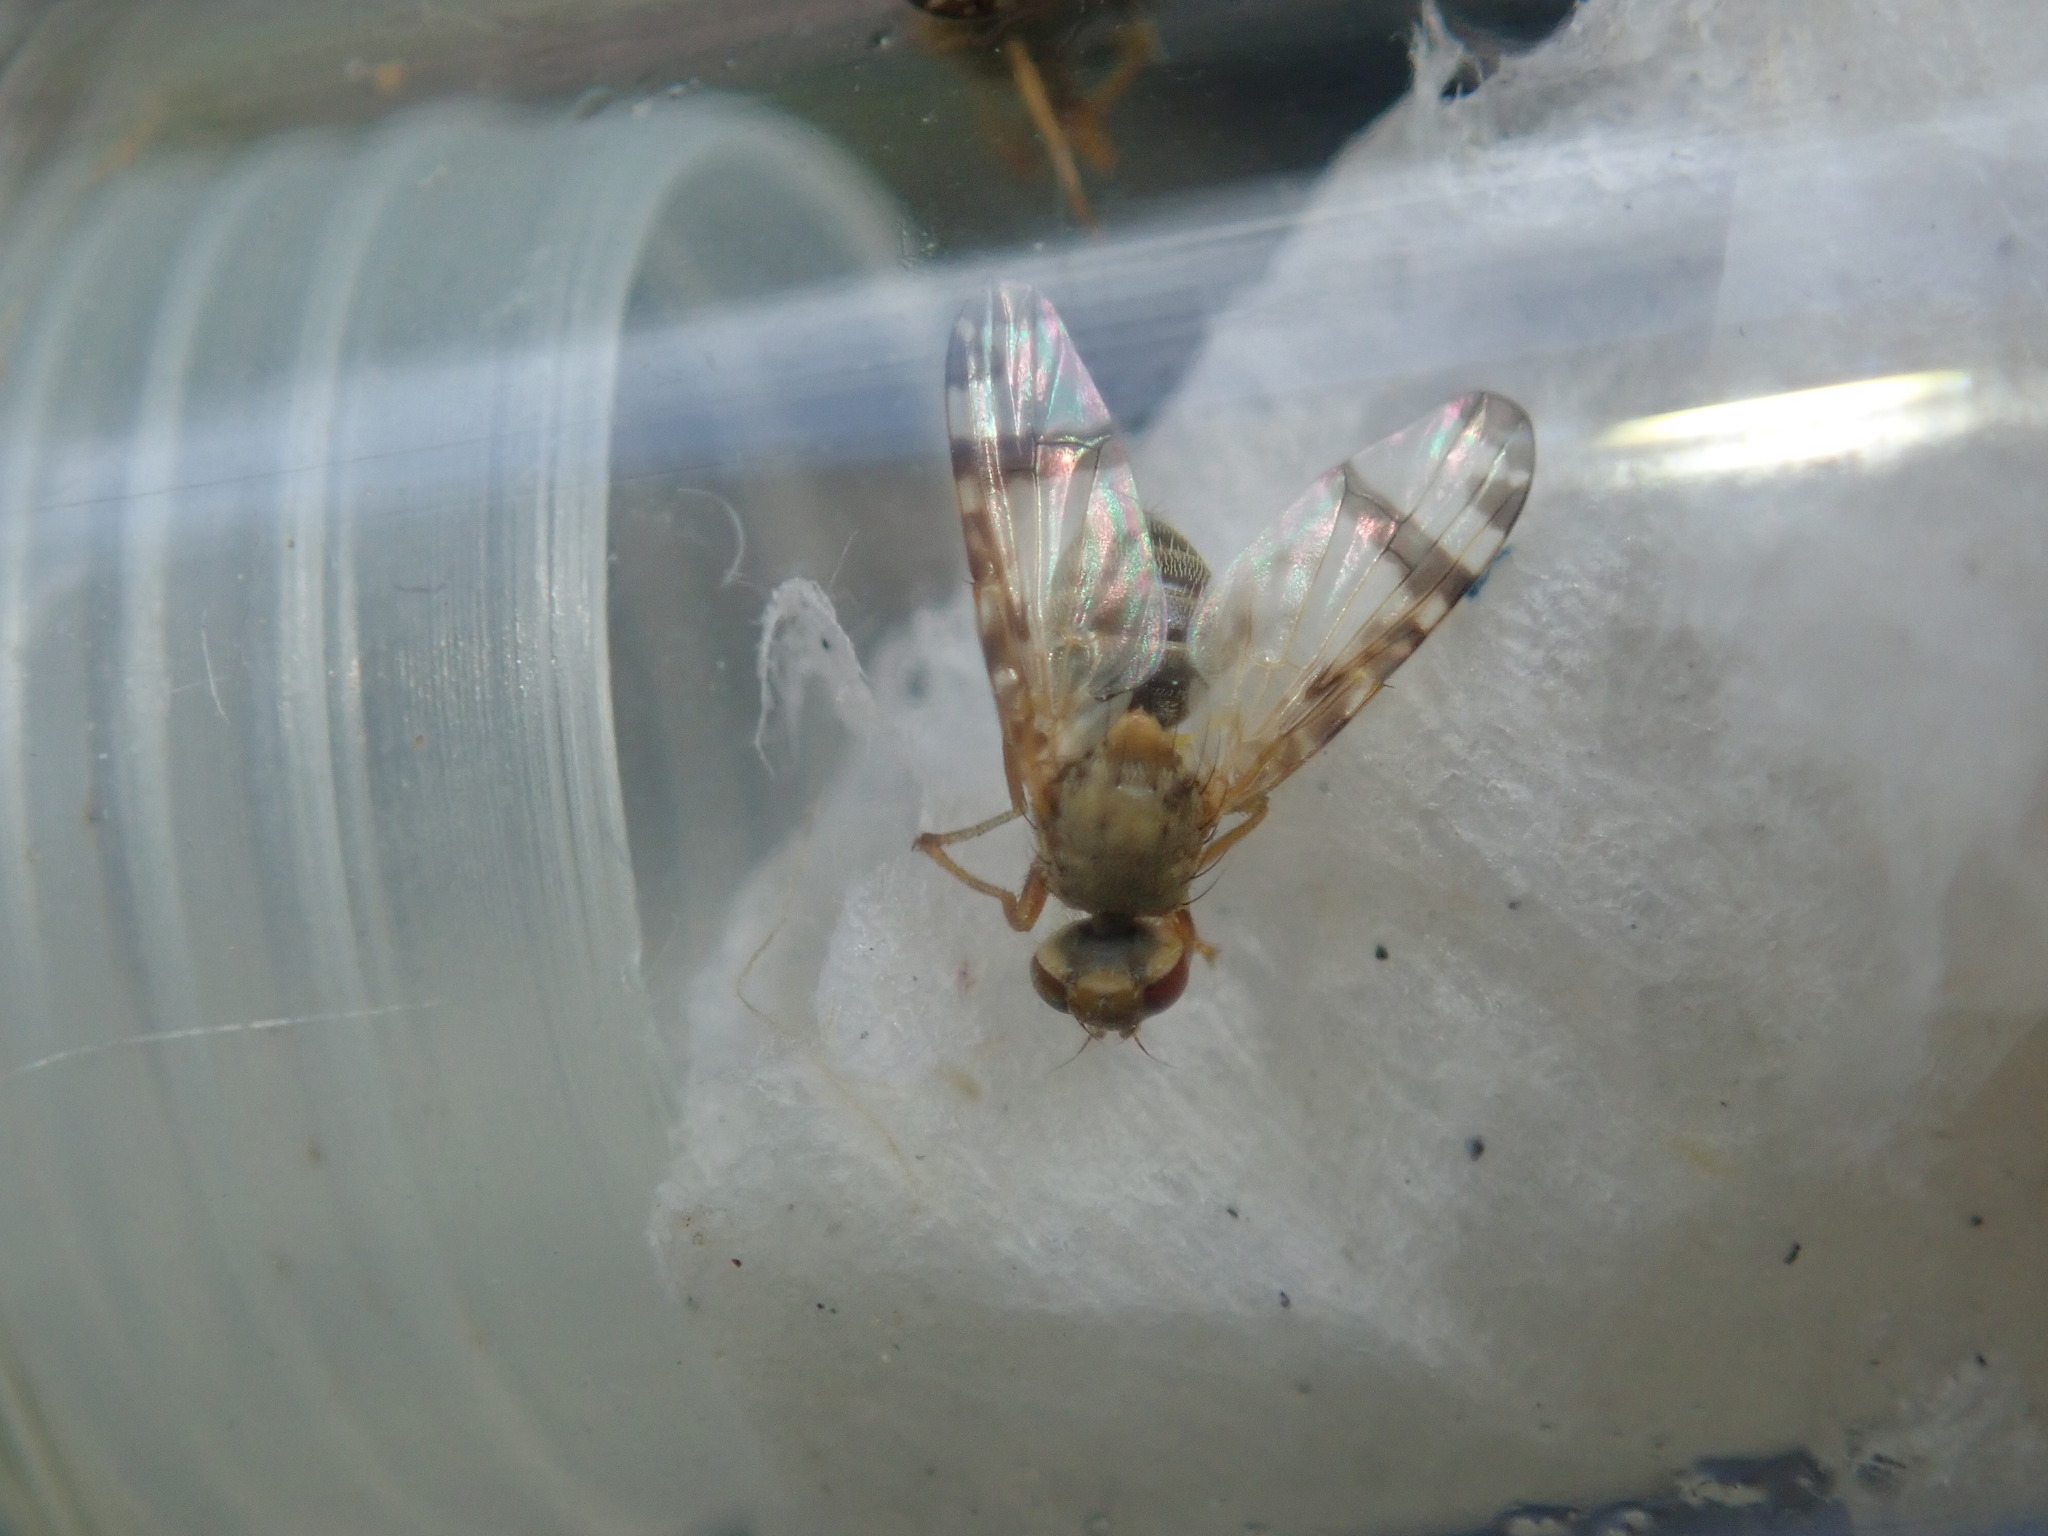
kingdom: Animalia
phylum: Arthropoda
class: Insecta
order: Diptera
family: Tephritidae
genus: Sphenella
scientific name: Sphenella marginata
